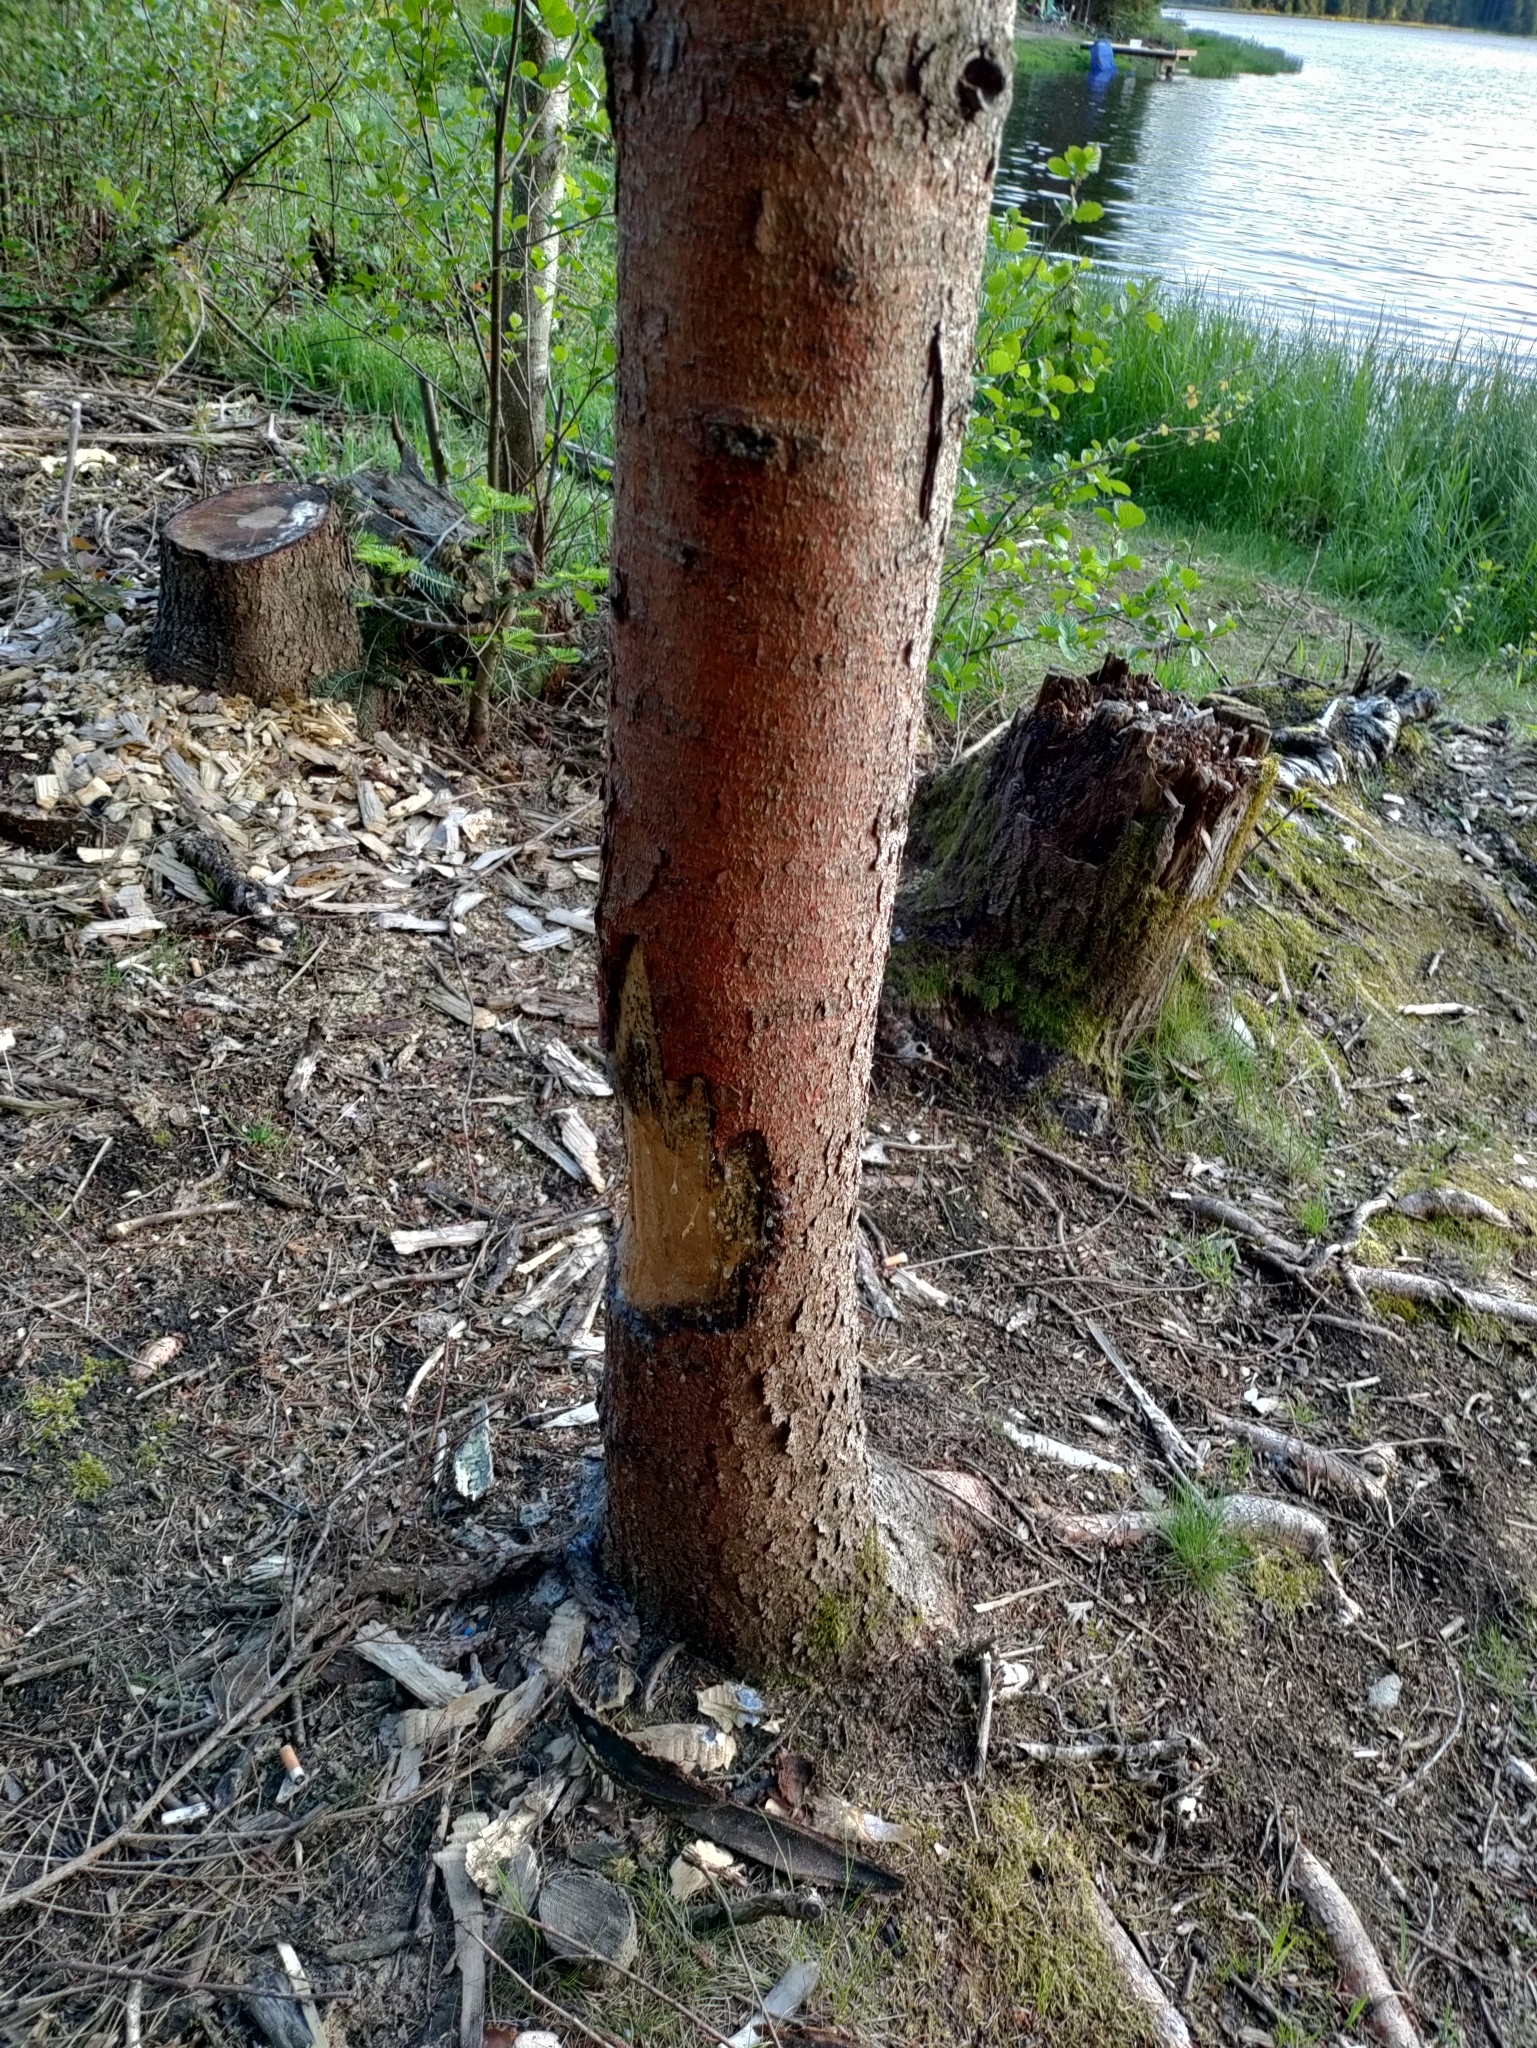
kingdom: Animalia
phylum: Chordata
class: Mammalia
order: Rodentia
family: Castoridae
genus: Castor
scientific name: Castor fiber
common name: Eurasian beaver
